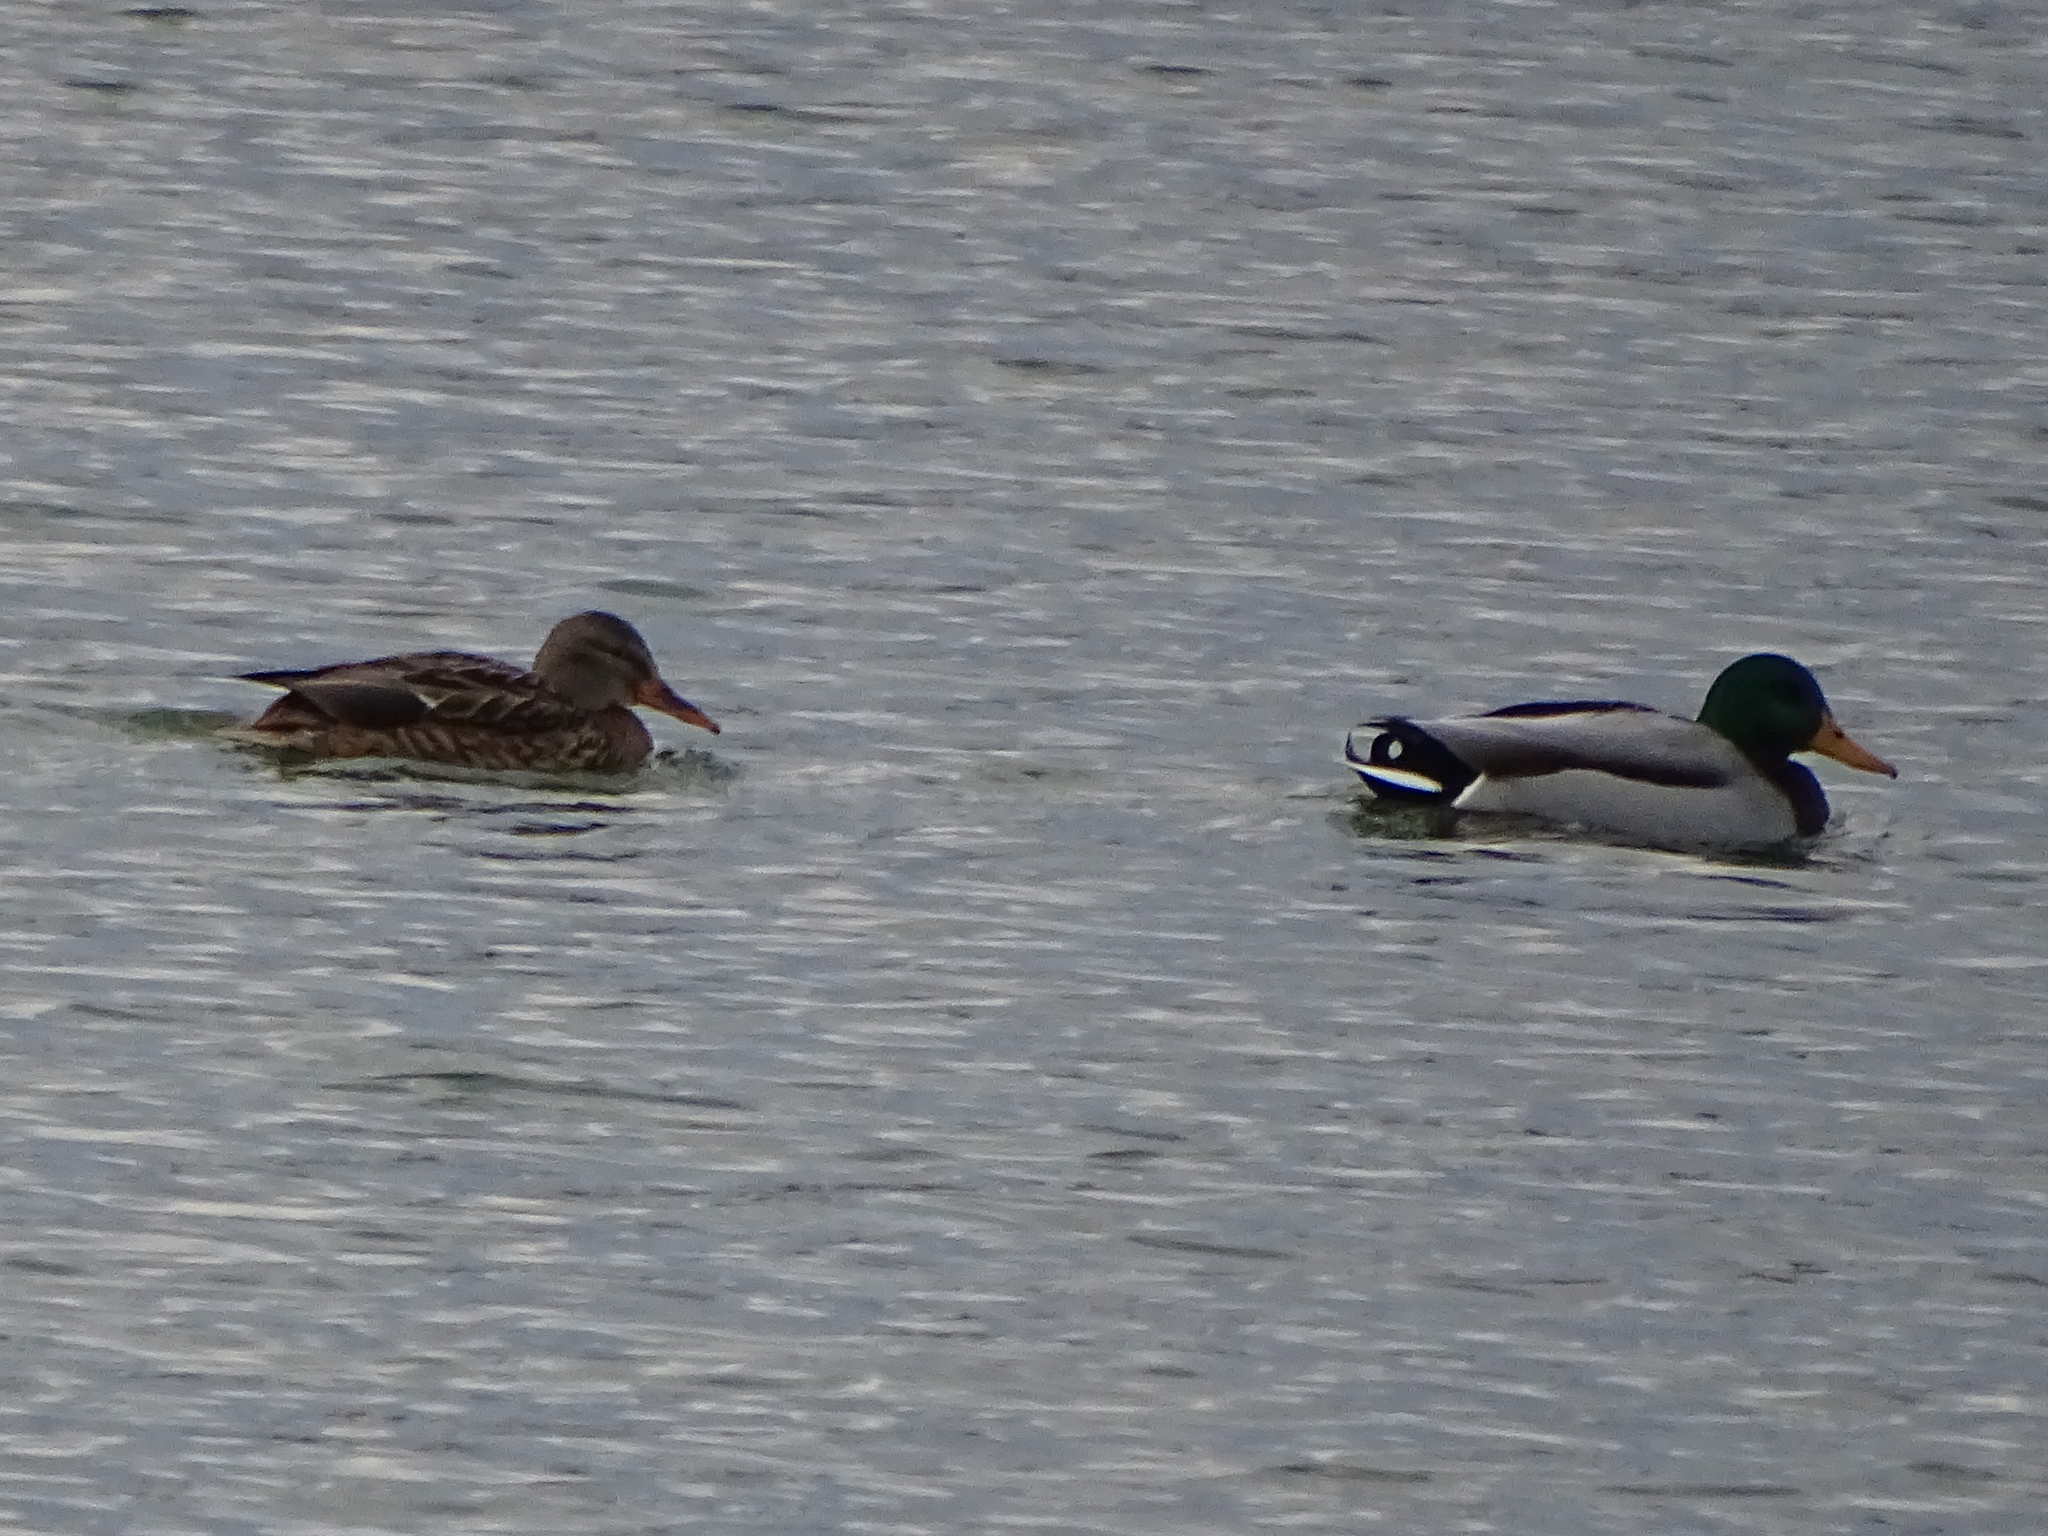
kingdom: Animalia
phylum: Chordata
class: Aves
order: Anseriformes
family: Anatidae
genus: Anas
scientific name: Anas platyrhynchos
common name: Mallard
